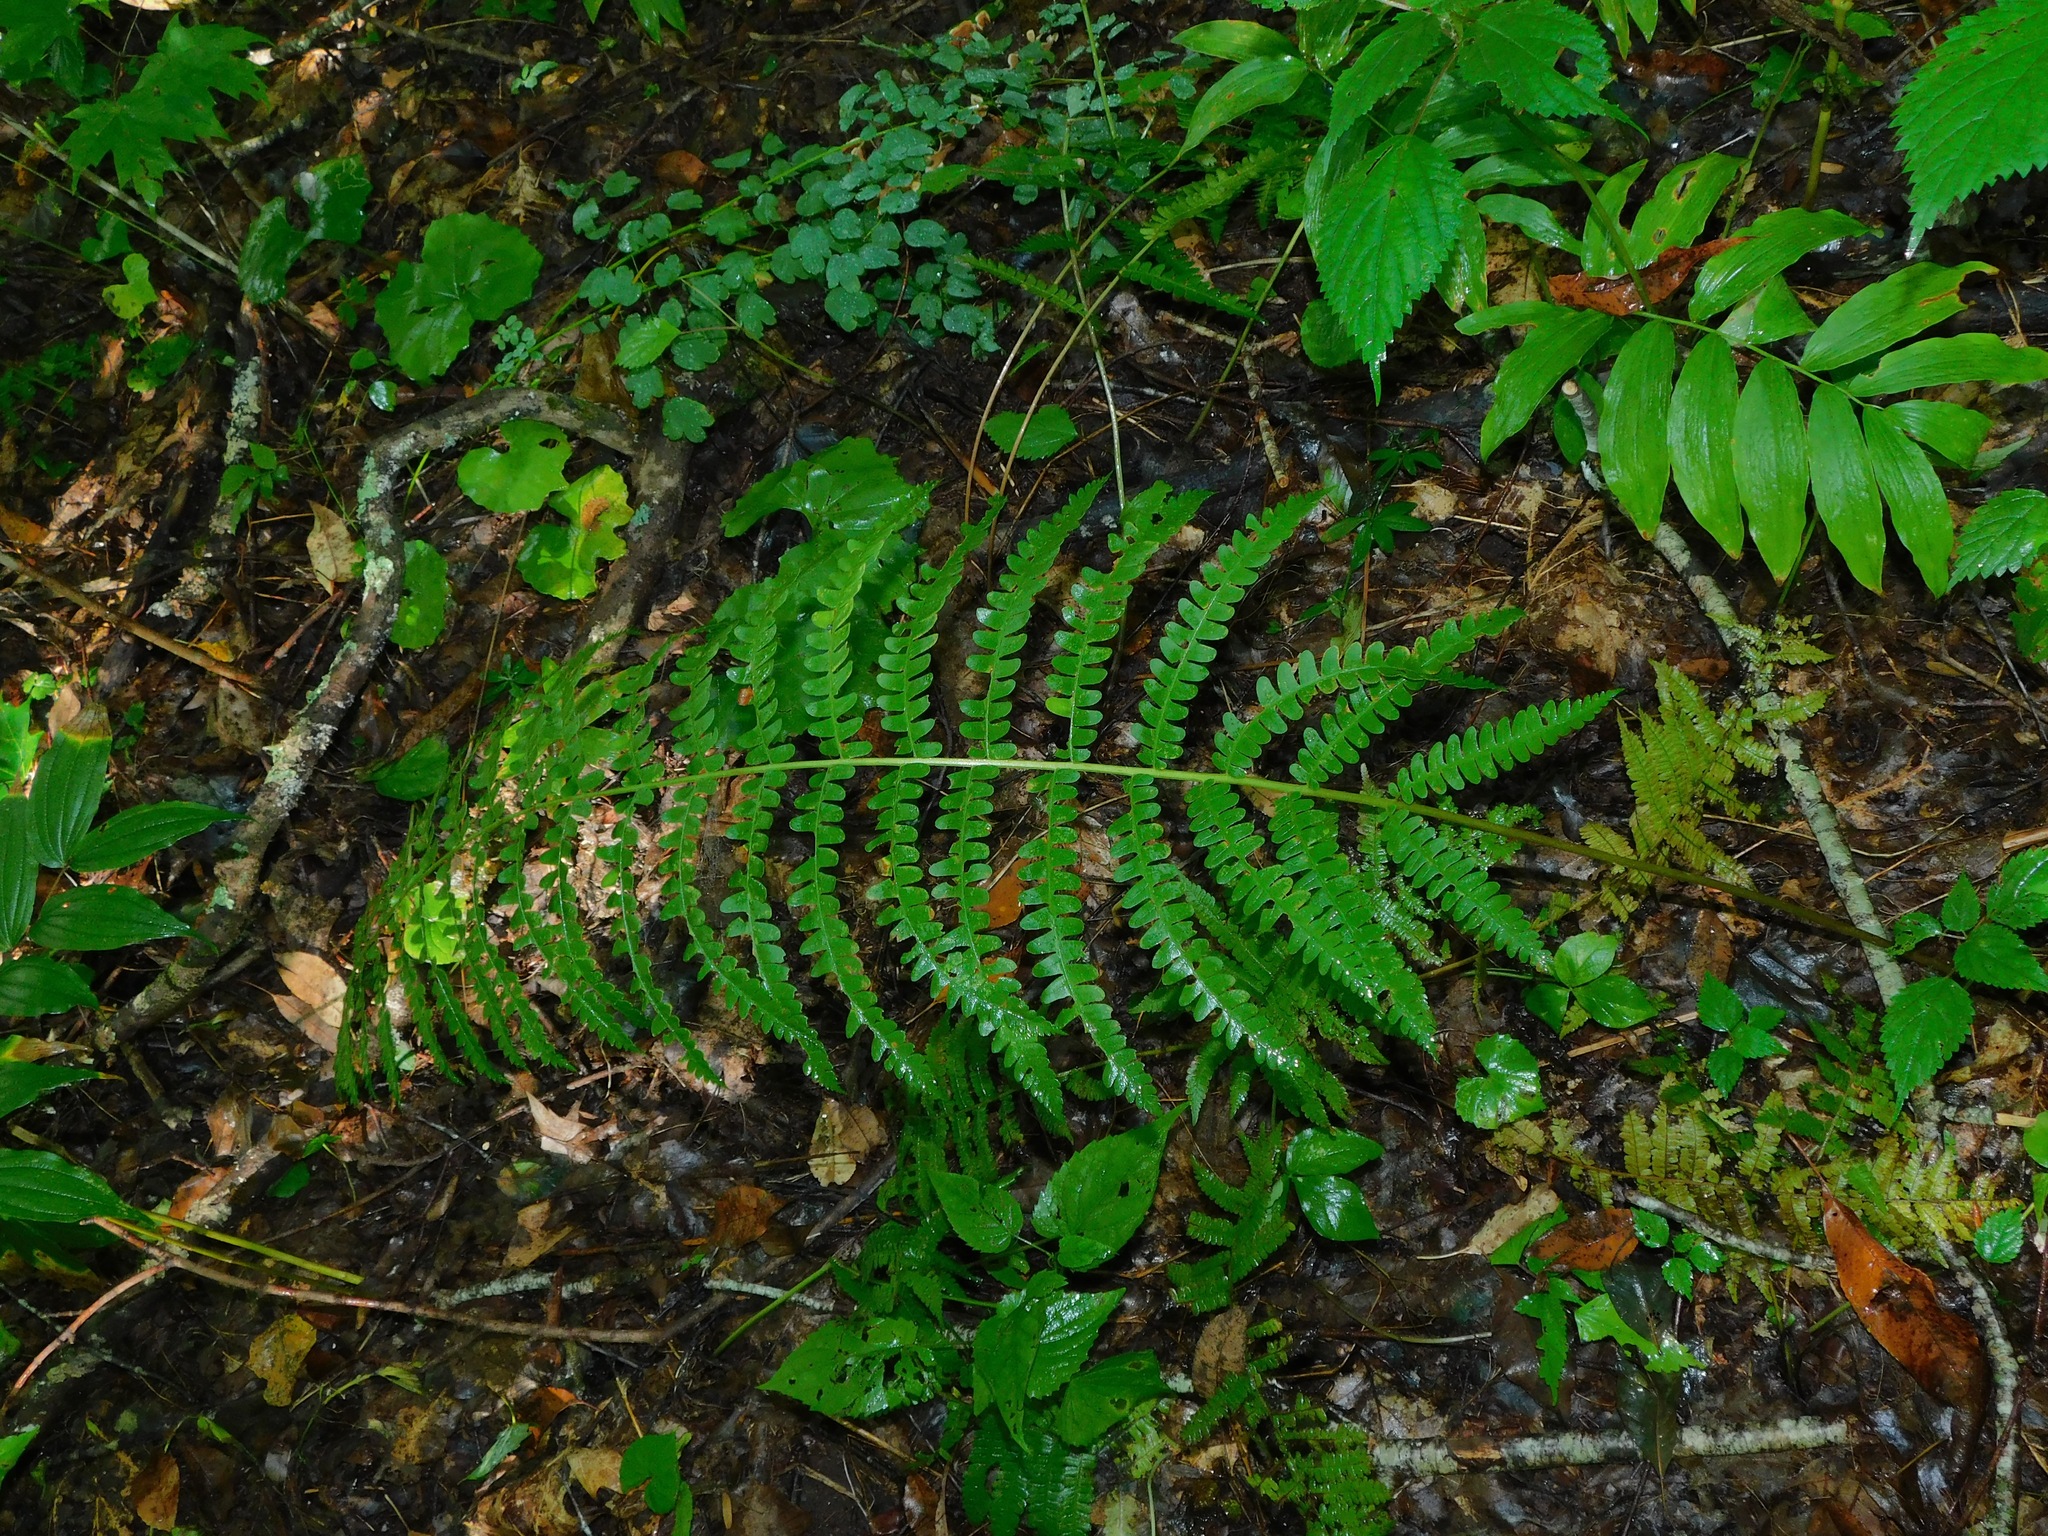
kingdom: Plantae
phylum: Tracheophyta
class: Polypodiopsida
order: Osmundales
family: Osmundaceae
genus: Osmundastrum
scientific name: Osmundastrum cinnamomeum
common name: Cinnamon fern
